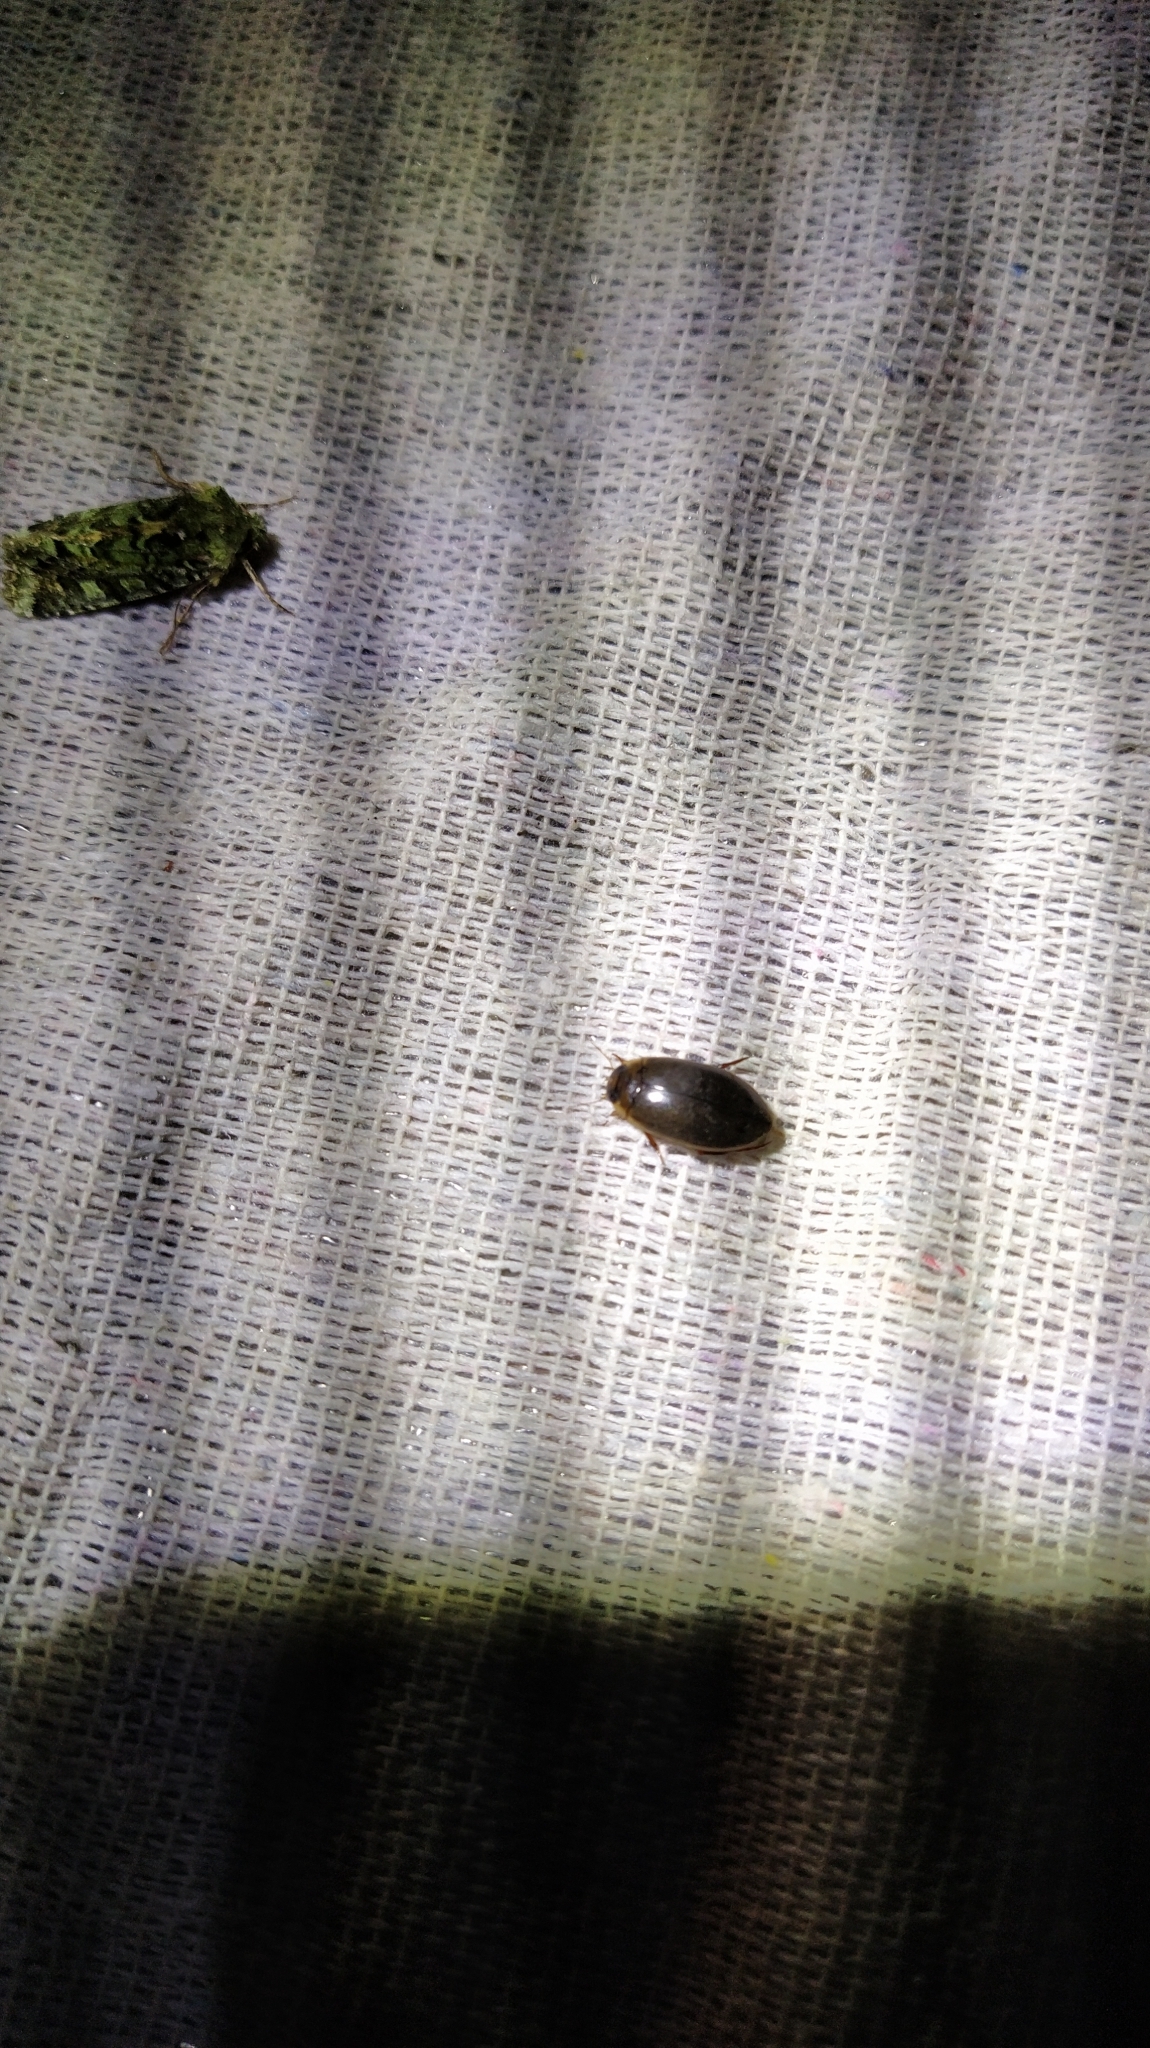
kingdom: Animalia
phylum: Arthropoda
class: Insecta
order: Coleoptera
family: Dytiscidae
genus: Rhantus
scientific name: Rhantus suturalis
